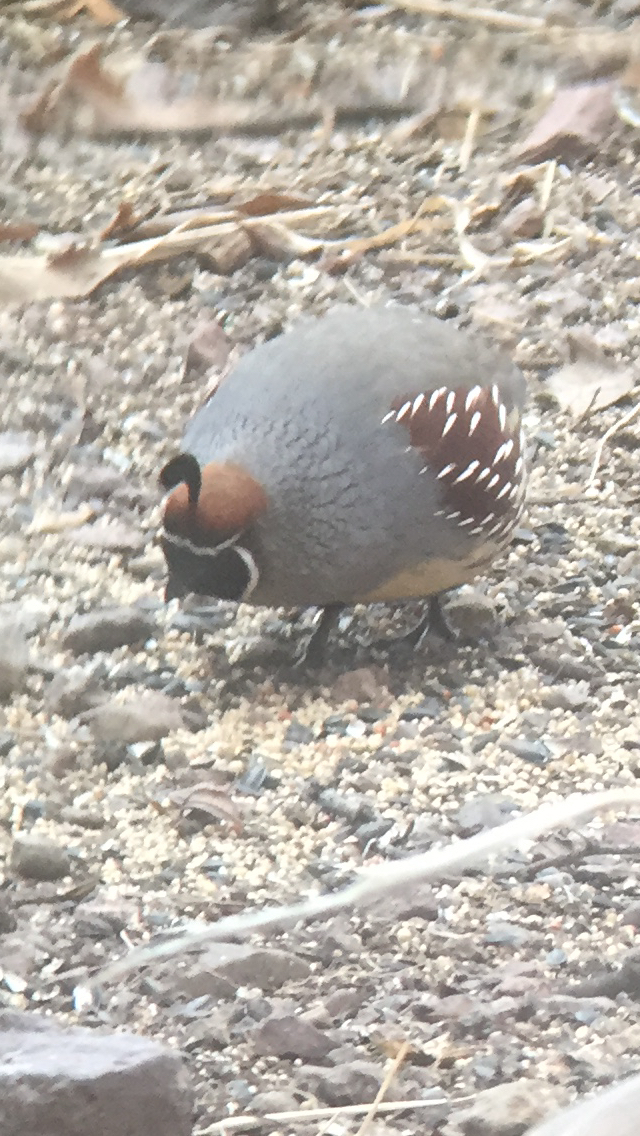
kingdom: Animalia
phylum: Chordata
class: Aves
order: Galliformes
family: Odontophoridae
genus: Callipepla
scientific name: Callipepla gambelii
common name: Gambel's quail
